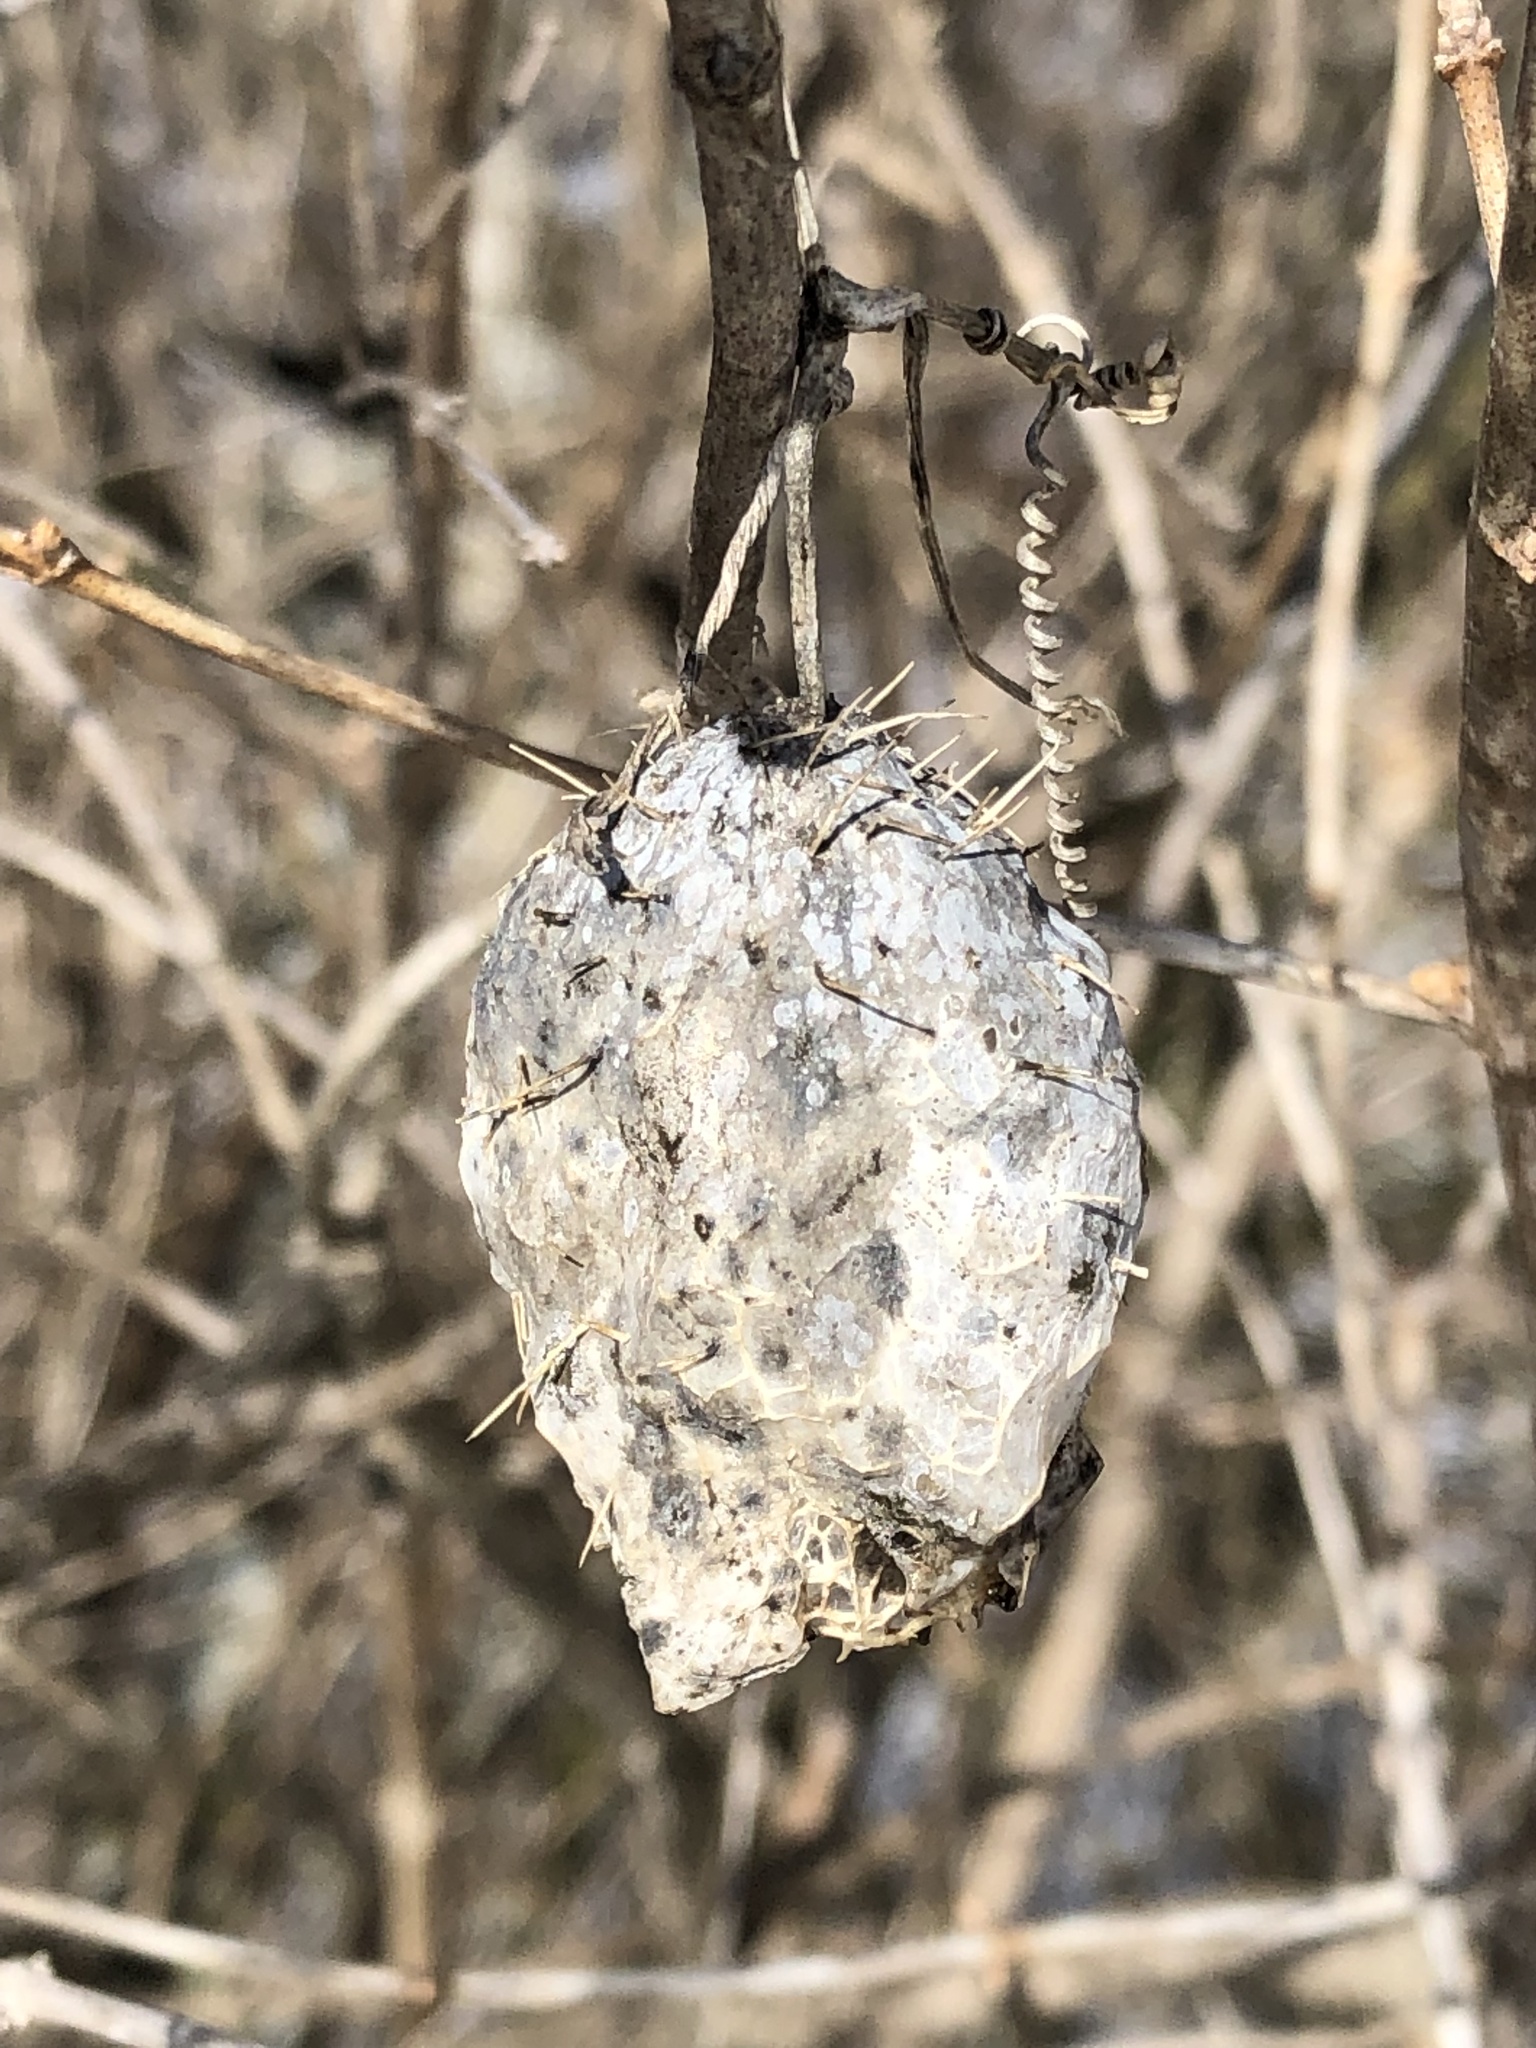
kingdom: Plantae
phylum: Tracheophyta
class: Magnoliopsida
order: Cucurbitales
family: Cucurbitaceae
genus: Echinocystis
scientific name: Echinocystis lobata
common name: Wild cucumber
